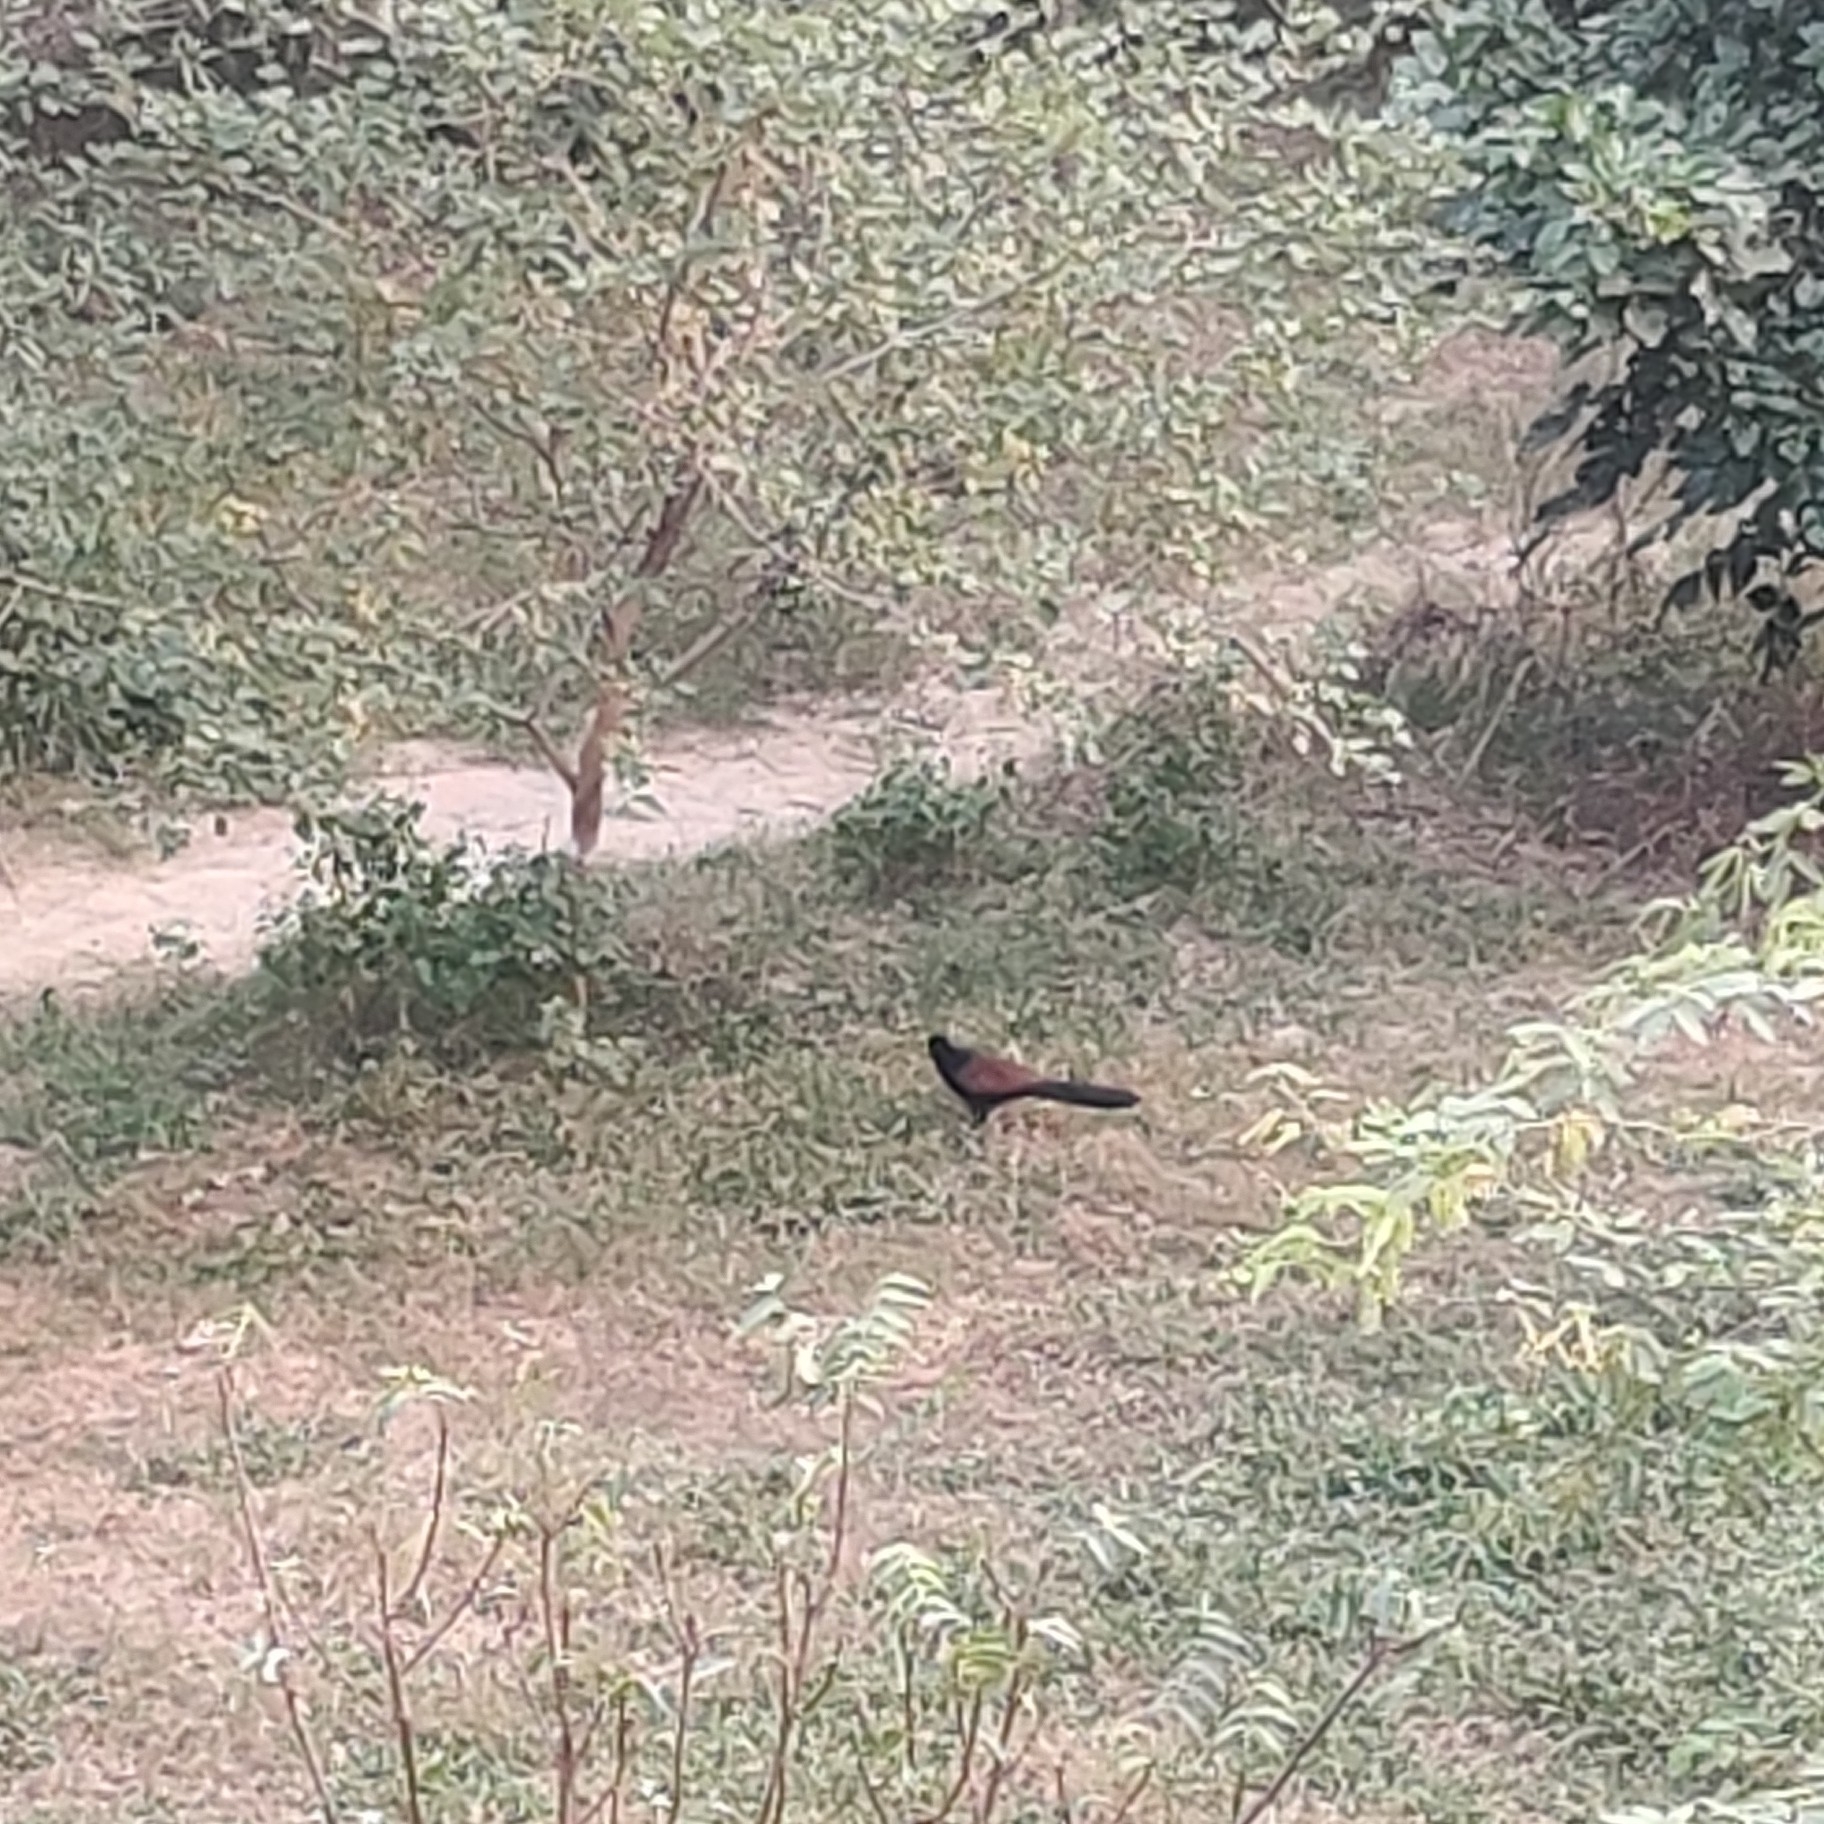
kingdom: Animalia
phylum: Chordata
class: Aves
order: Cuculiformes
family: Cuculidae
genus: Centropus
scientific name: Centropus sinensis
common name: Greater coucal
